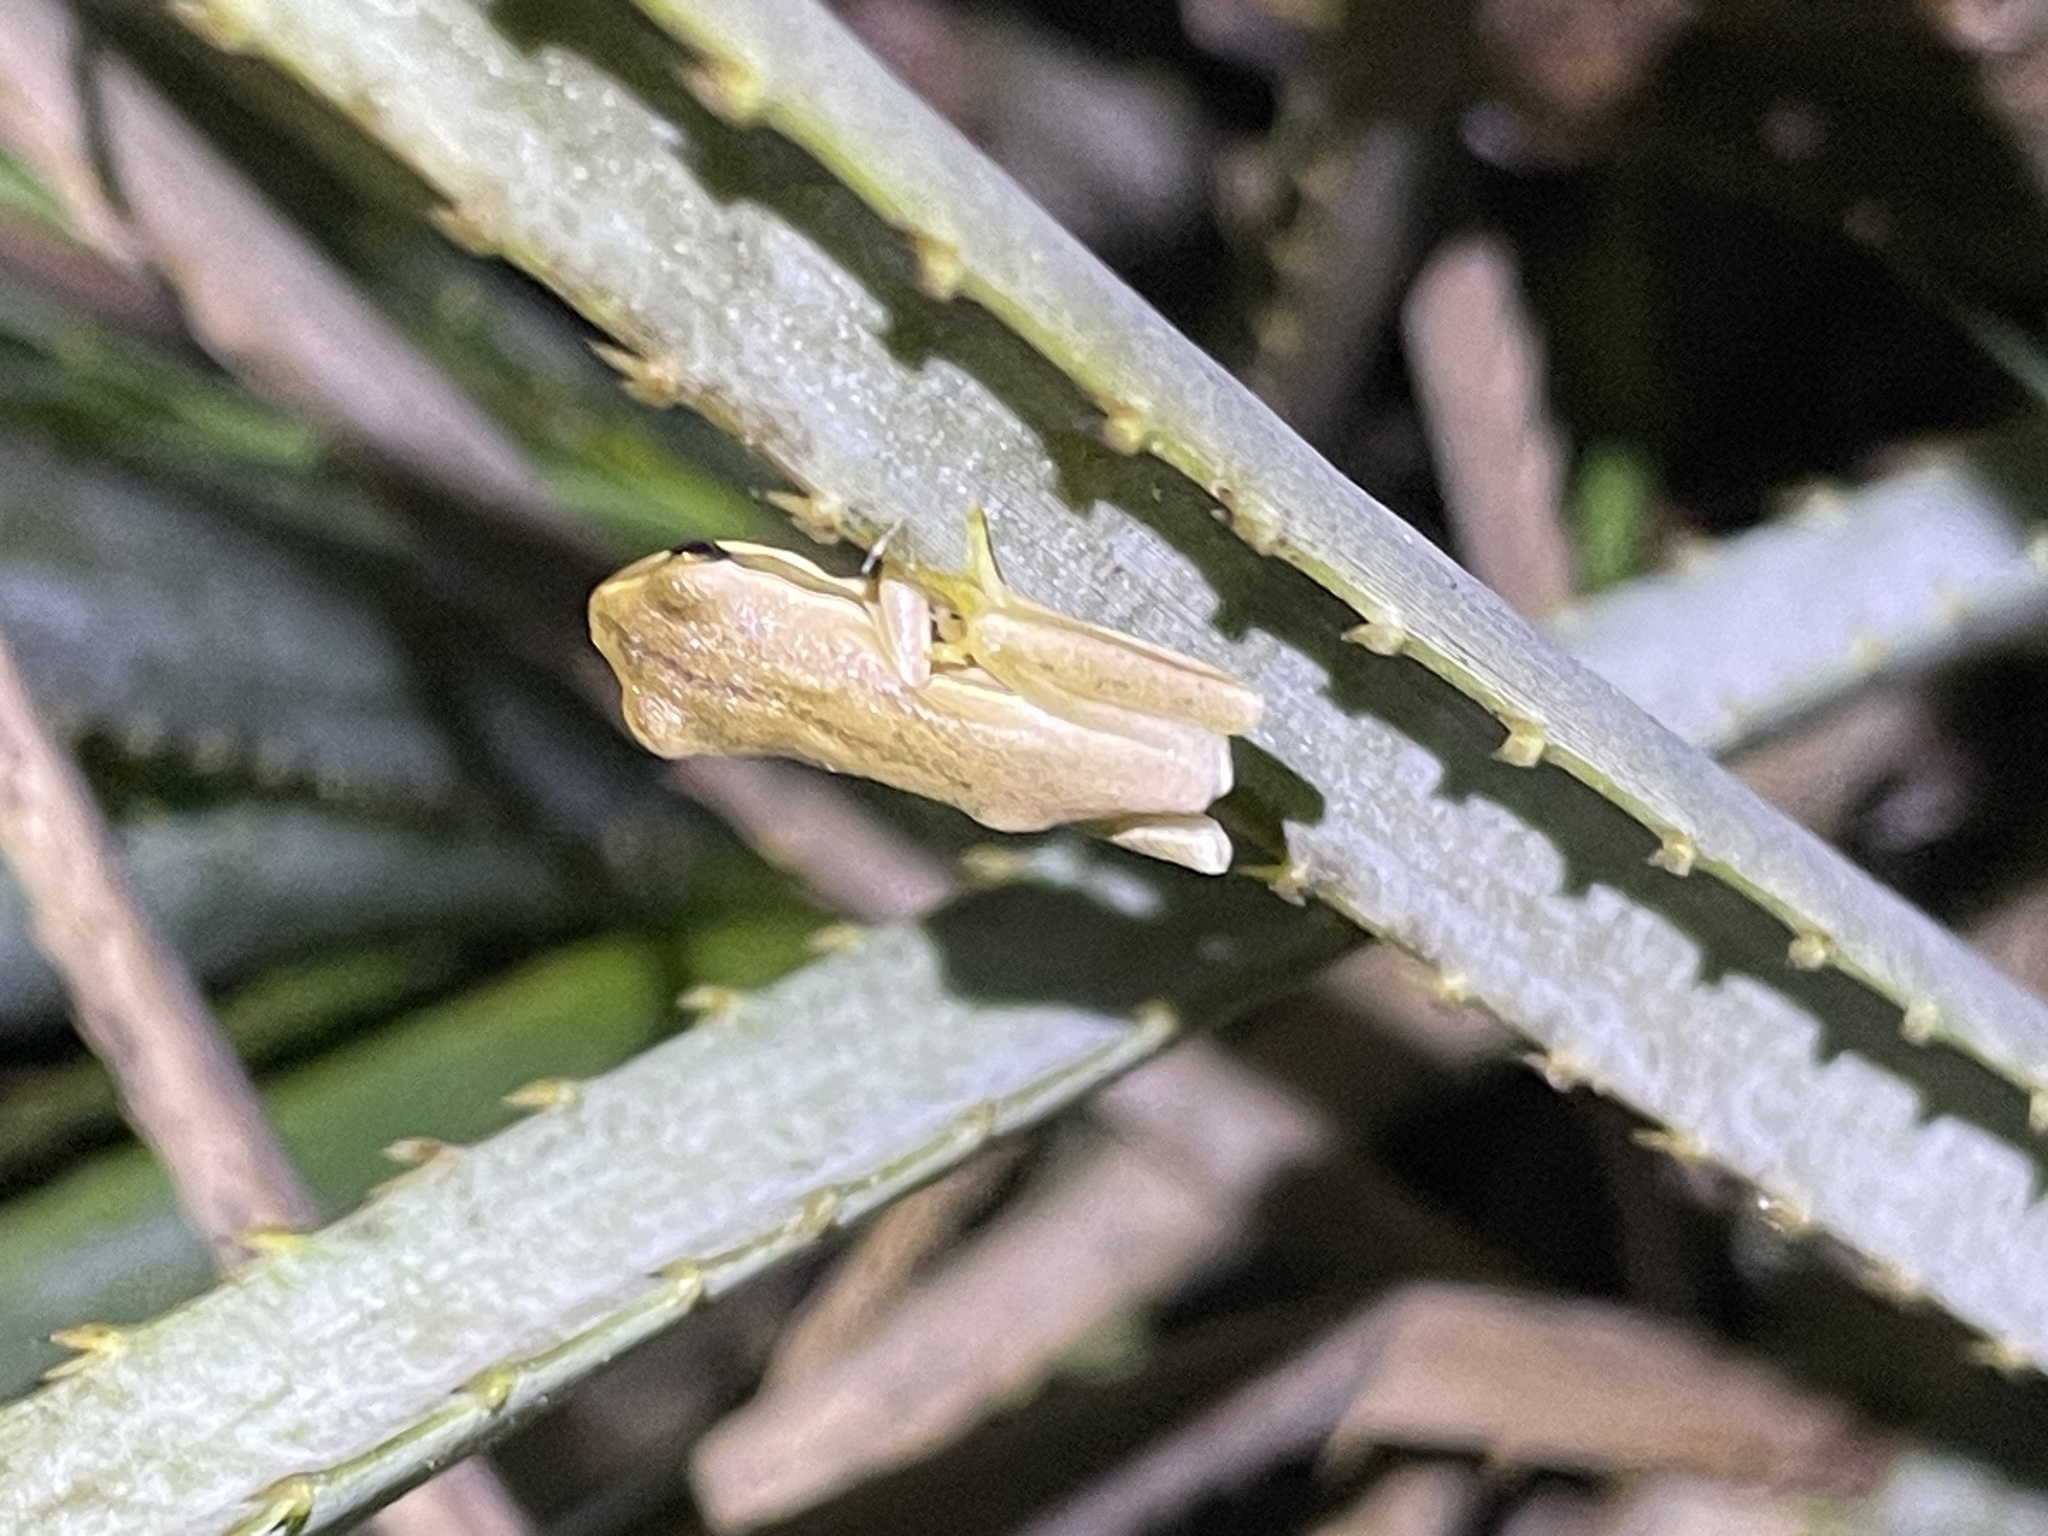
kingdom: Animalia
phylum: Chordata
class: Amphibia
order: Anura
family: Hylidae
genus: Boana
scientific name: Boana pulchella
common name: Montevideo treefrog
